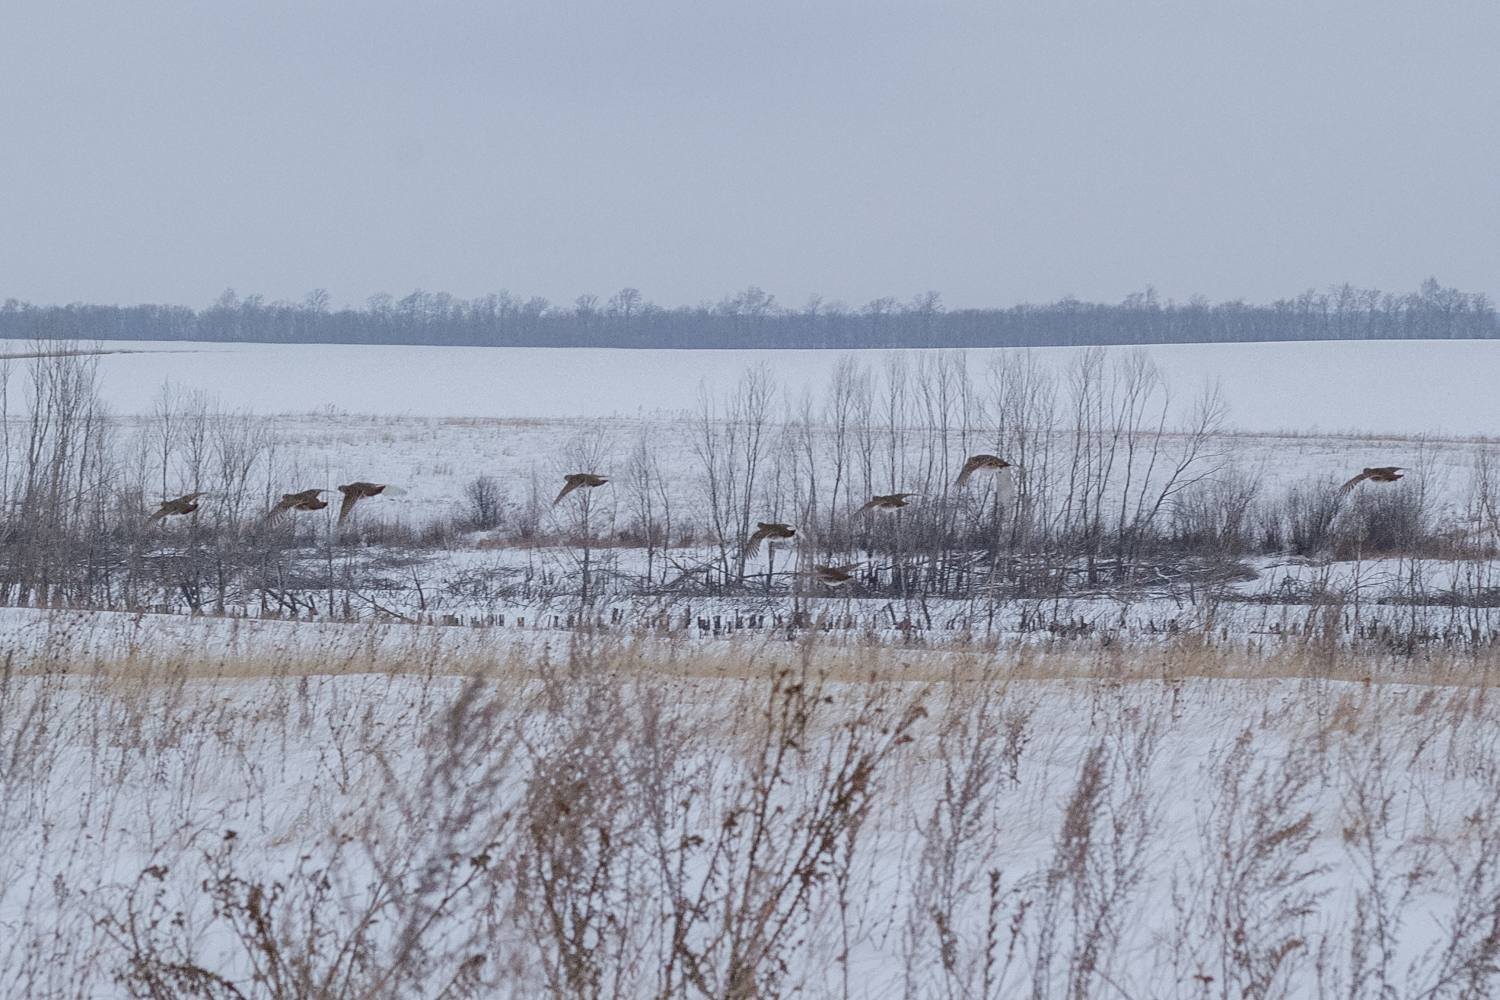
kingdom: Animalia
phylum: Chordata
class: Aves
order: Galliformes
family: Phasianidae
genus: Perdix
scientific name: Perdix perdix
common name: Grey partridge
